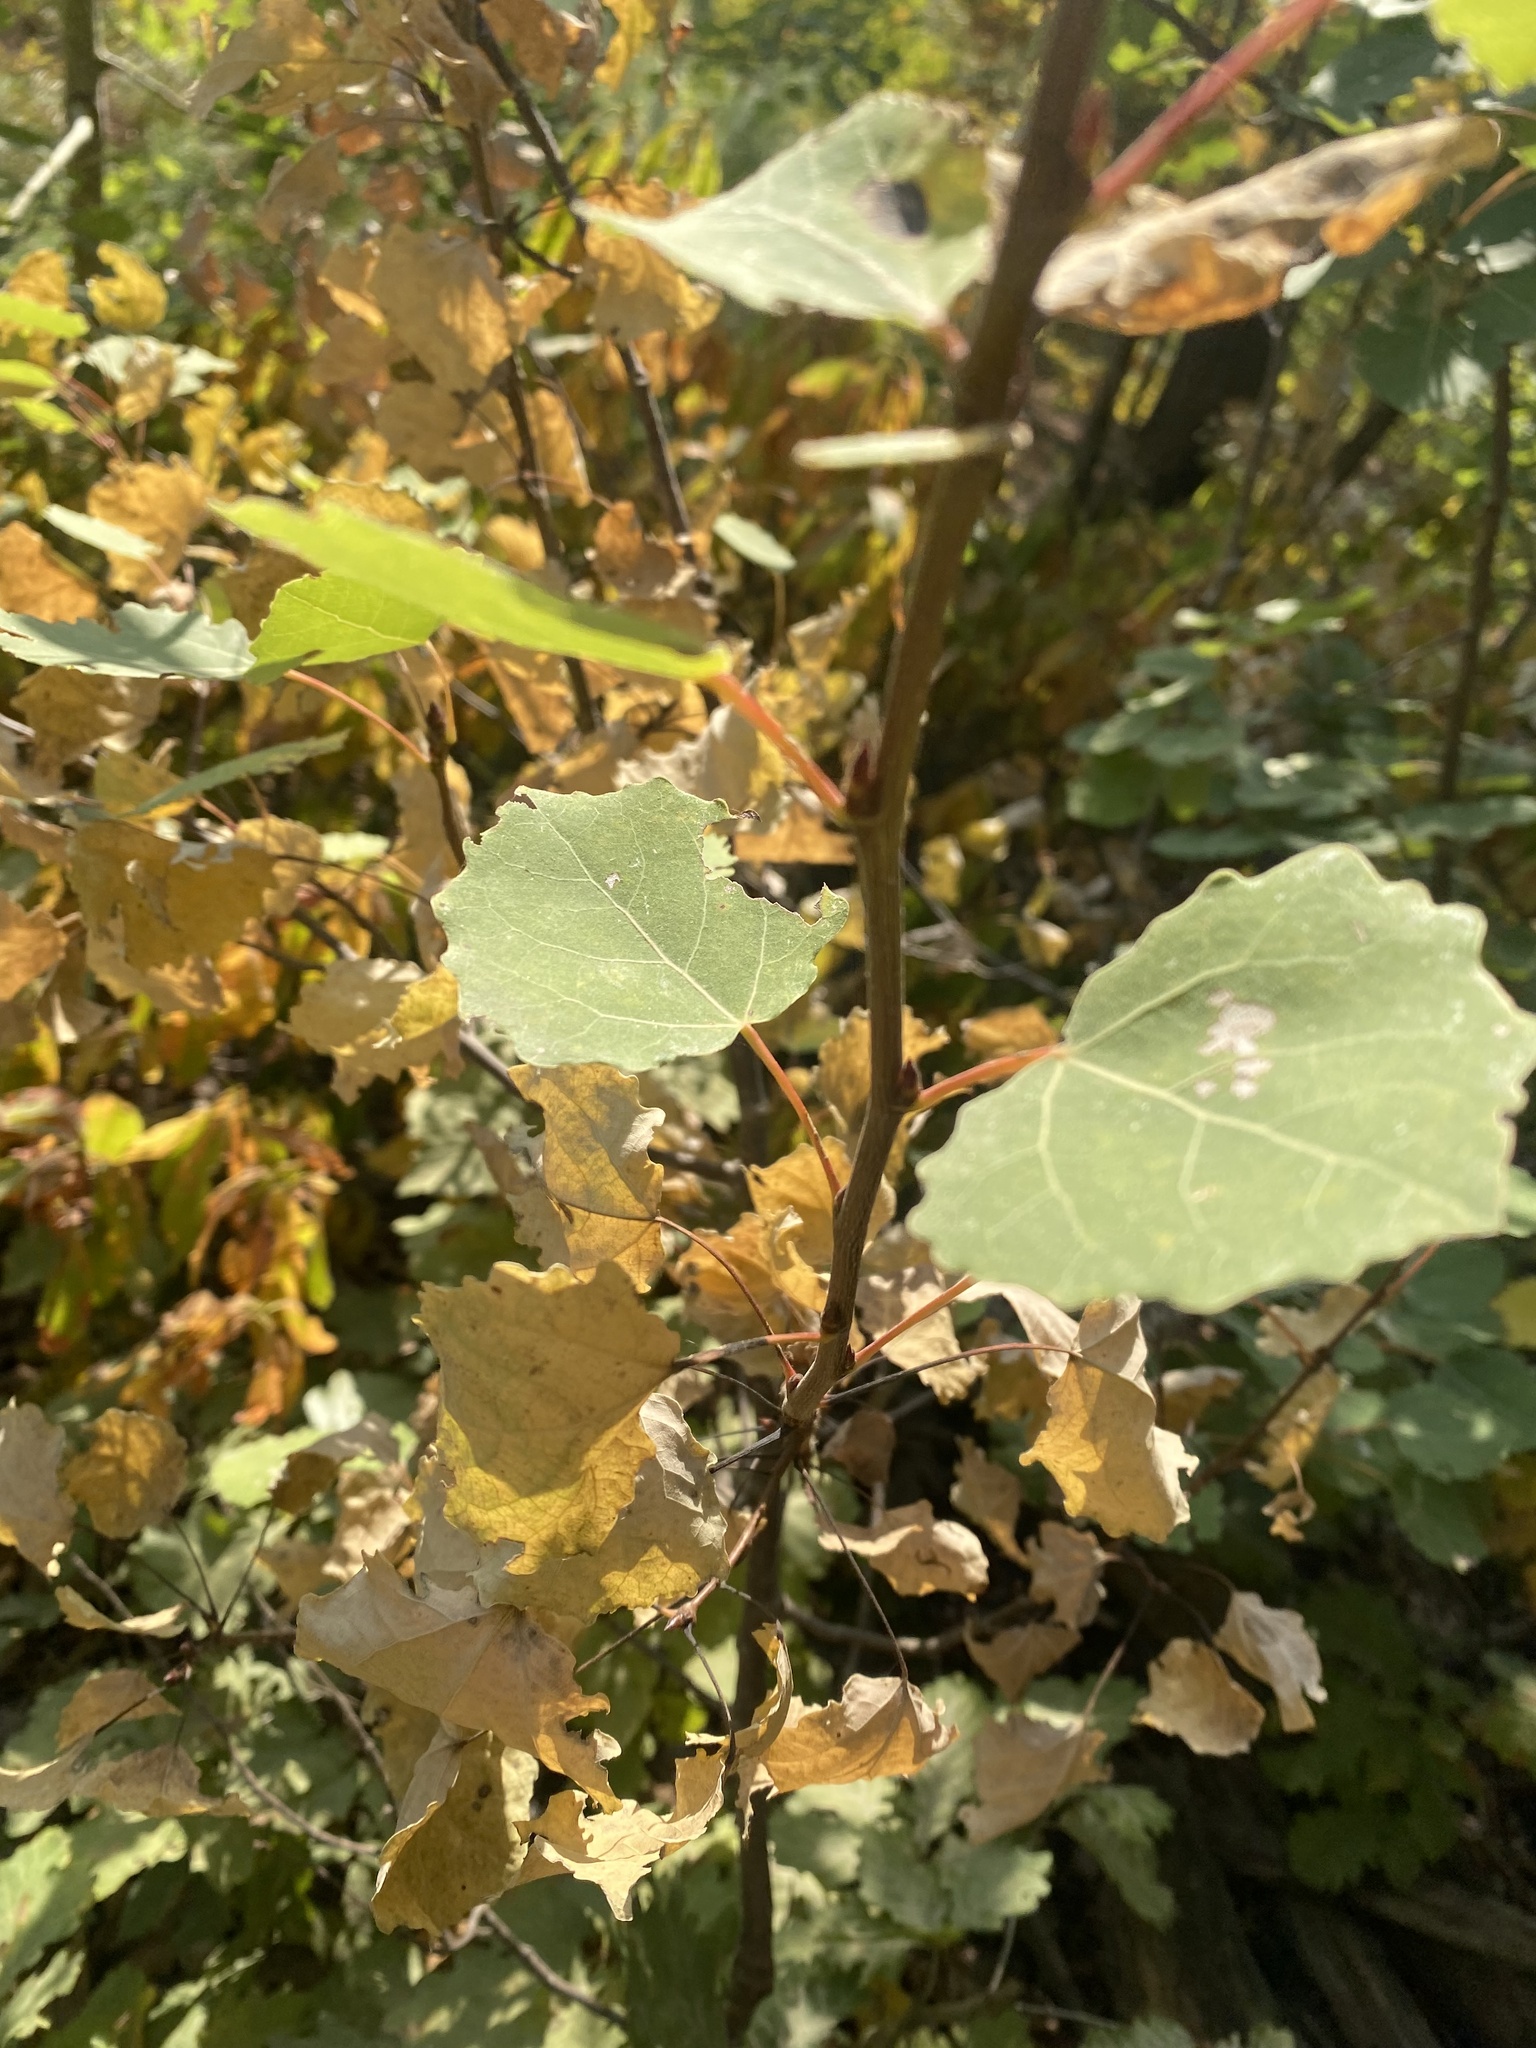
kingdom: Plantae
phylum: Tracheophyta
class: Magnoliopsida
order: Malpighiales
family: Salicaceae
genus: Populus
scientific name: Populus tremula
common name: European aspen
